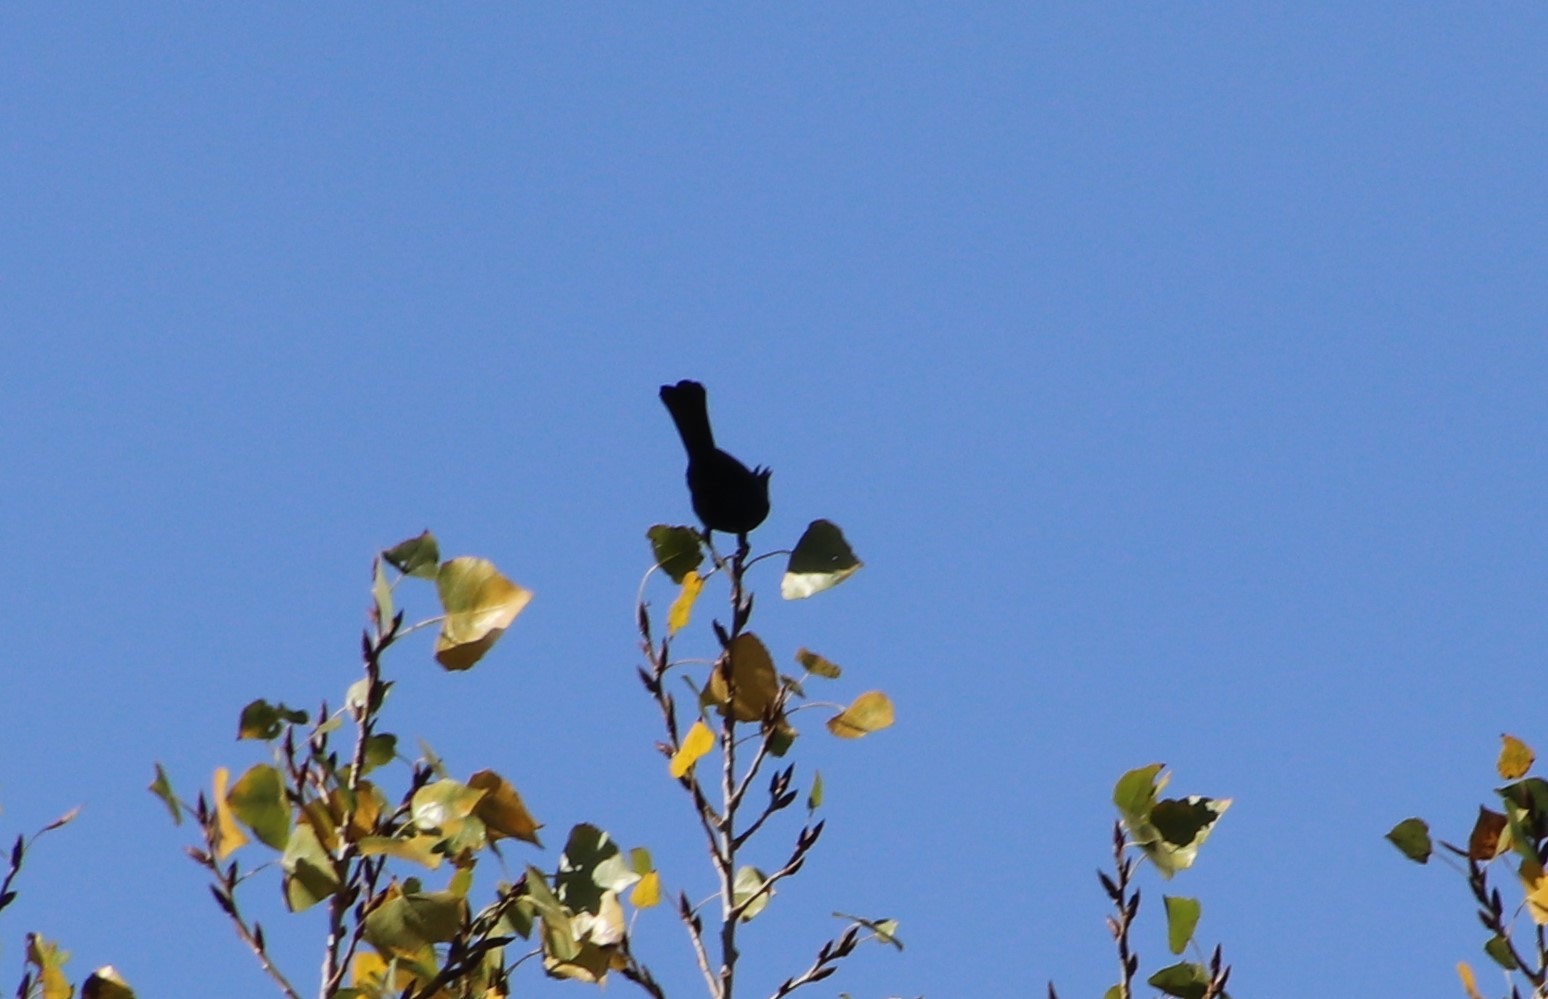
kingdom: Animalia
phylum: Chordata
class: Aves
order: Passeriformes
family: Ptilogonatidae
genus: Phainopepla
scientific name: Phainopepla nitens
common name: Phainopepla
